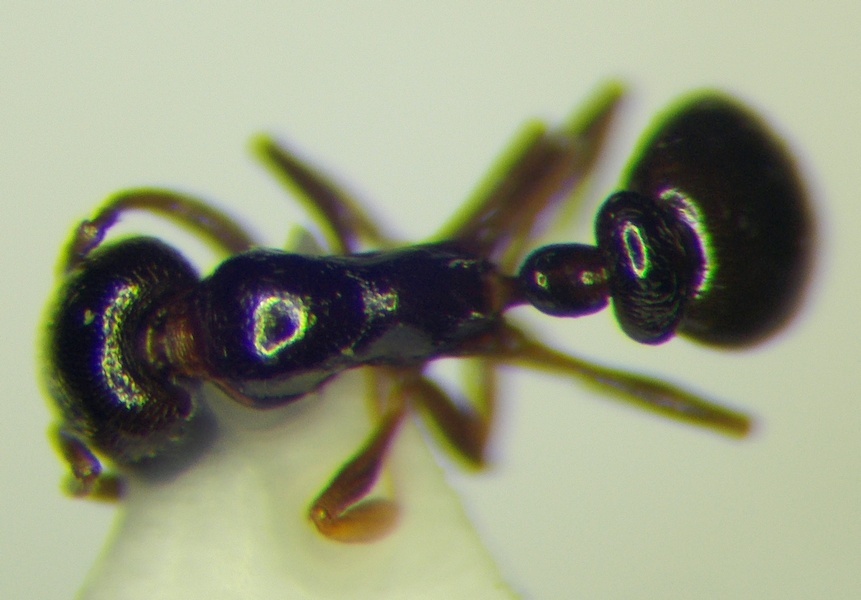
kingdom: Animalia
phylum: Arthropoda
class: Insecta
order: Hymenoptera
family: Formicidae
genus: Cardiocondyla
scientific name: Cardiocondyla stambuloffii
